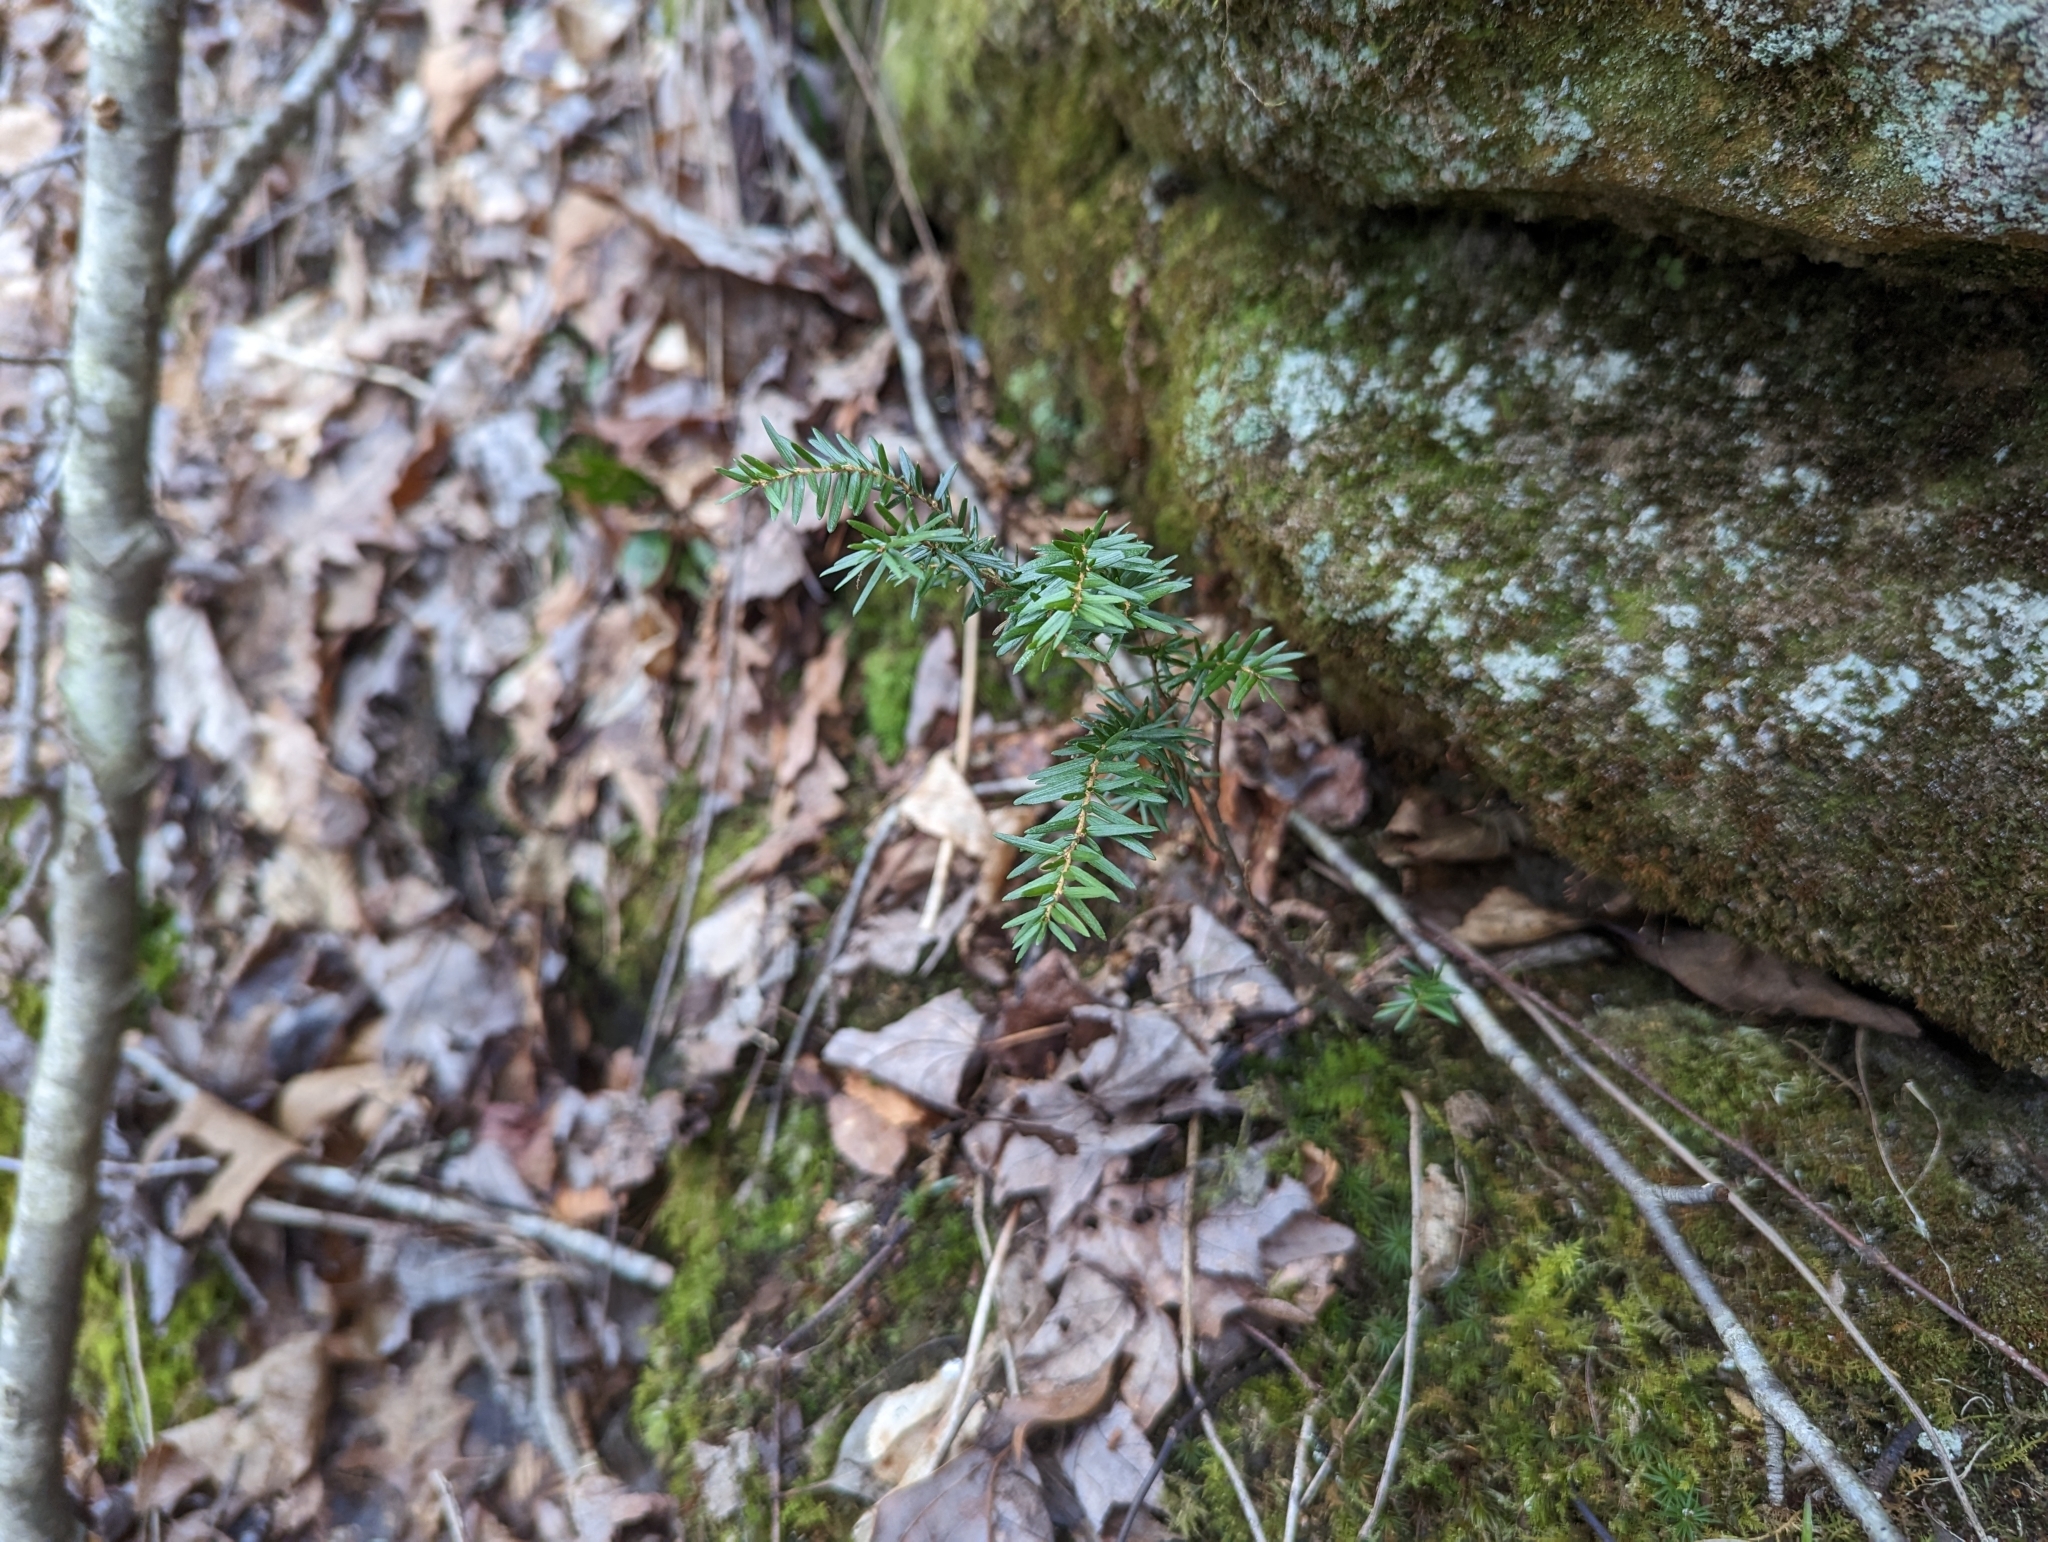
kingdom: Plantae
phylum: Tracheophyta
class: Pinopsida
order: Pinales
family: Pinaceae
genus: Tsuga
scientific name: Tsuga canadensis
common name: Eastern hemlock
